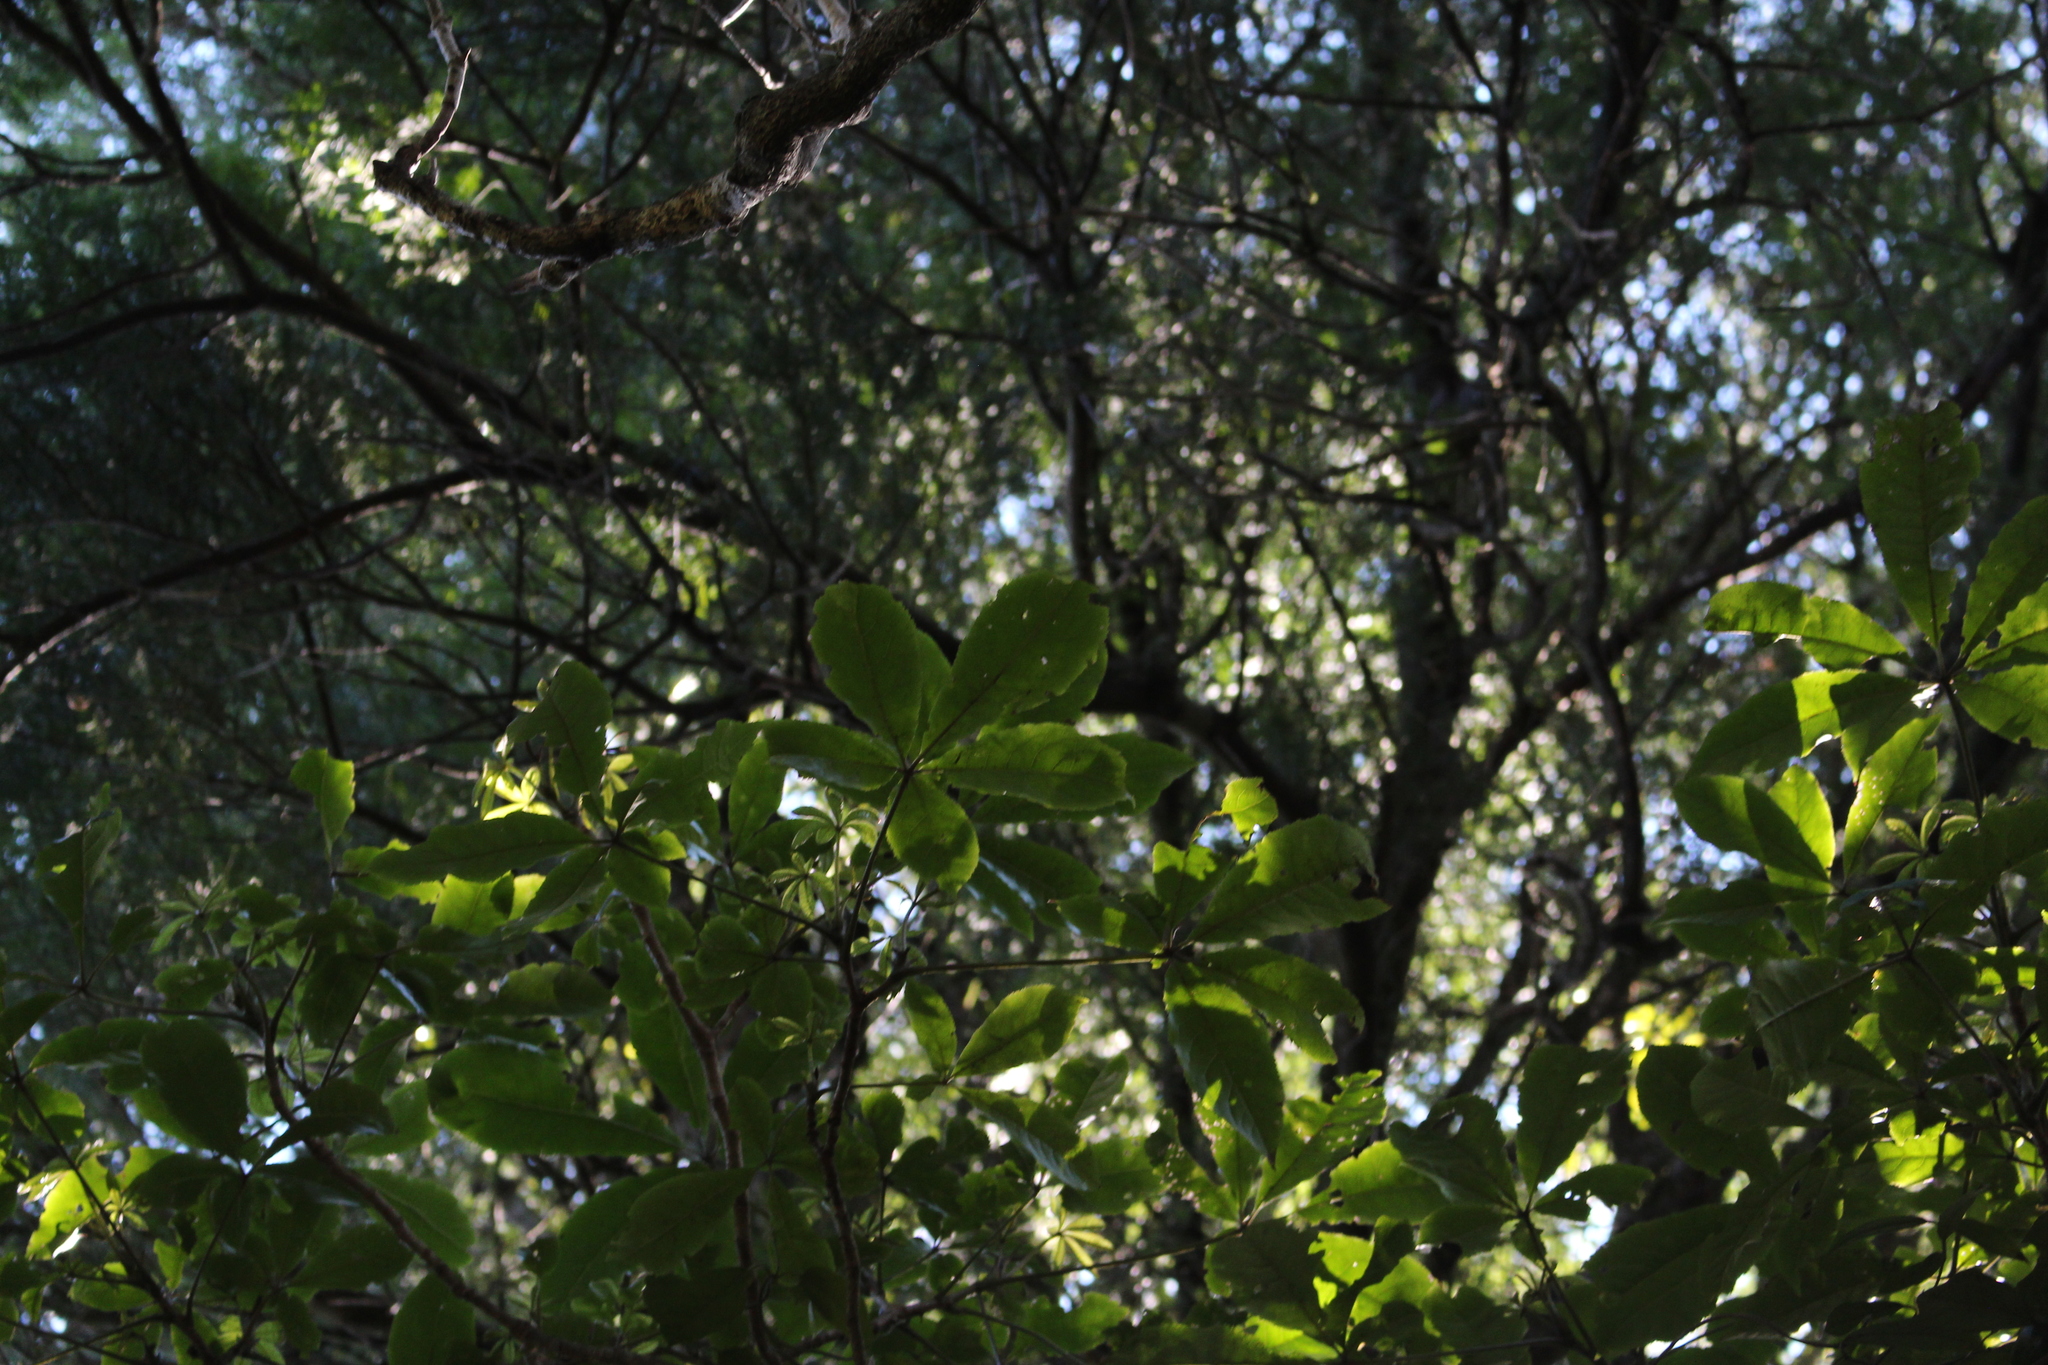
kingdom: Plantae
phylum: Tracheophyta
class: Magnoliopsida
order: Apiales
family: Araliaceae
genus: Schefflera
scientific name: Schefflera digitata
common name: Pate
